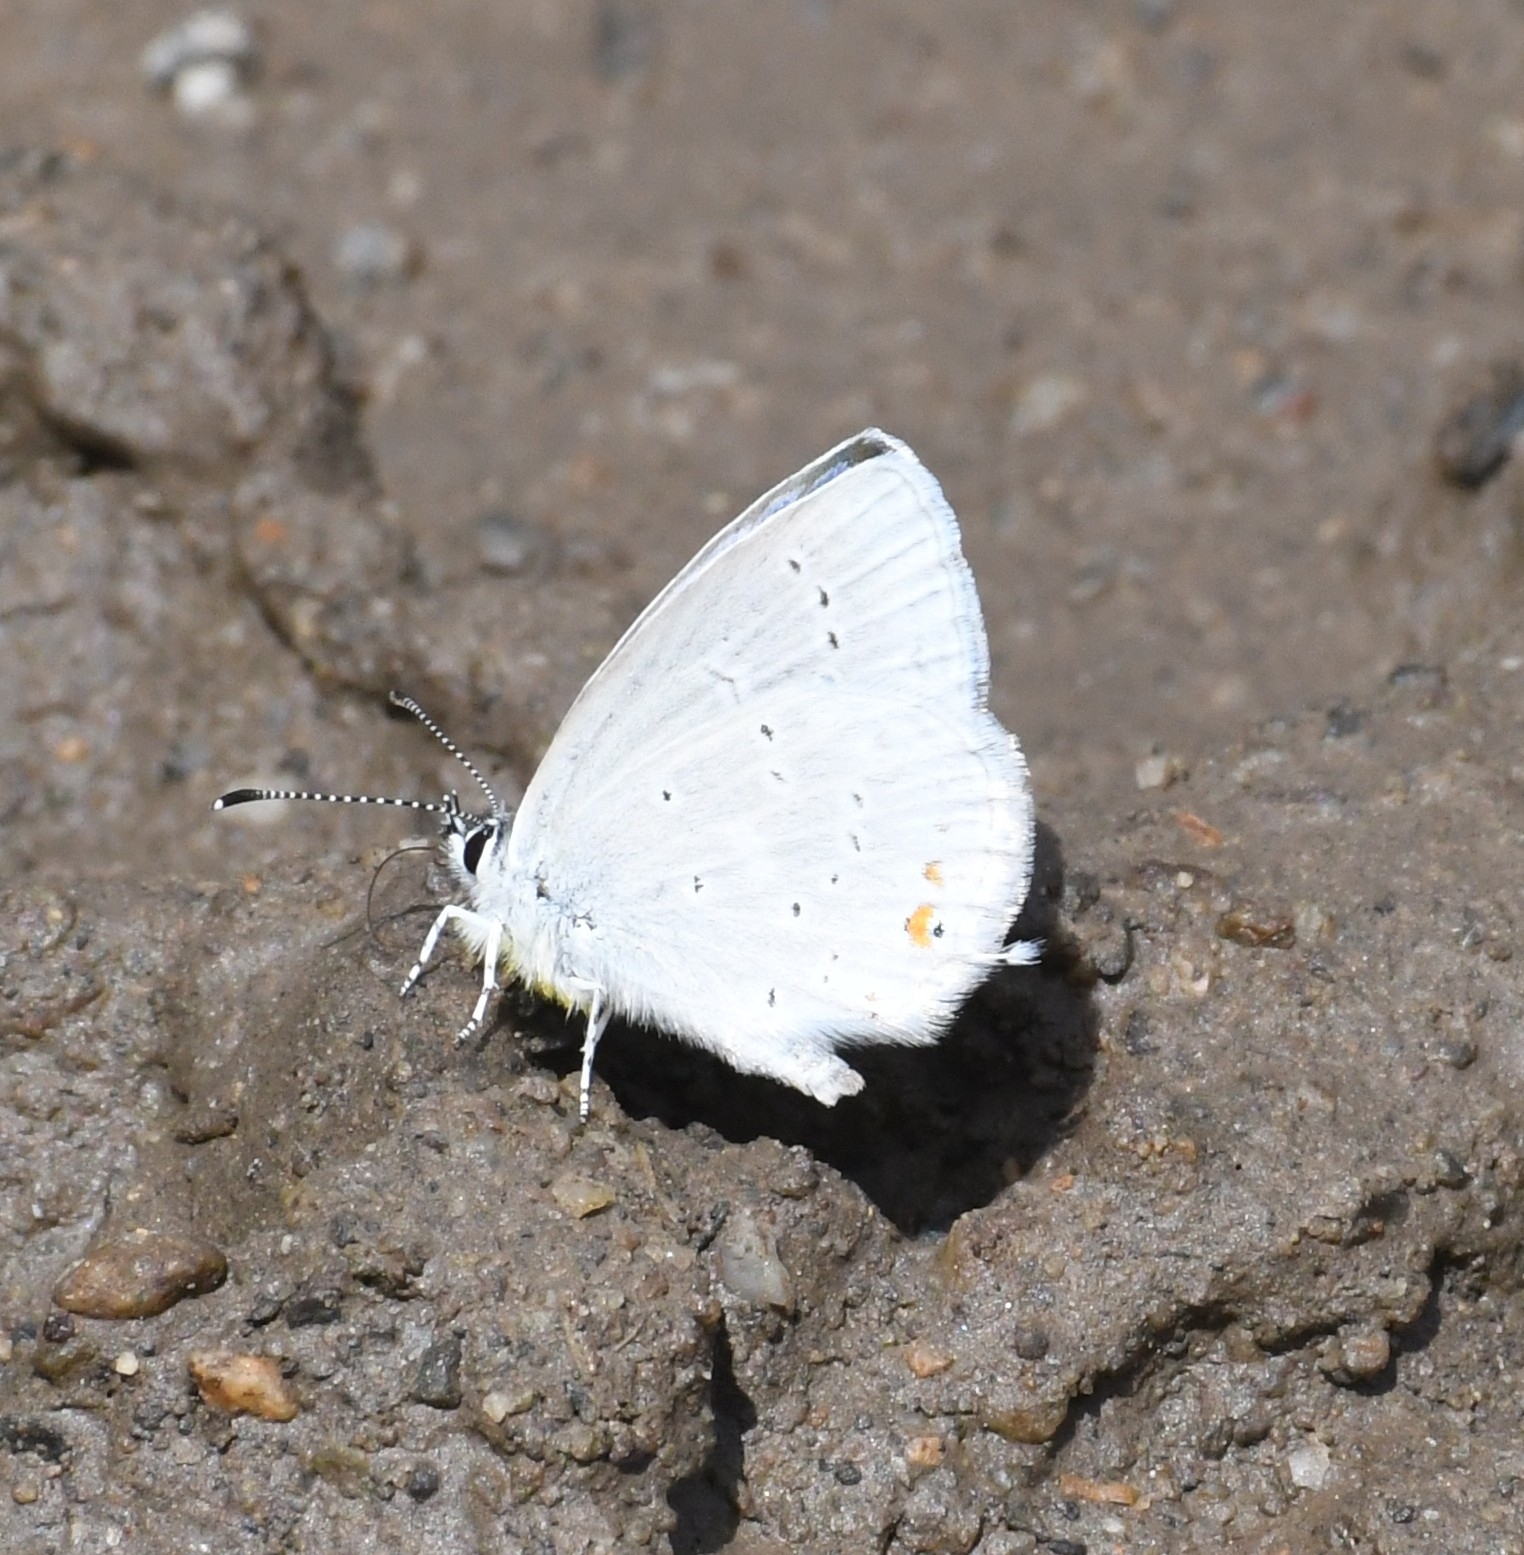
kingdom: Animalia
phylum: Arthropoda
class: Insecta
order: Lepidoptera
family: Lycaenidae
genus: Elkalyce
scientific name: Elkalyce amyntula
